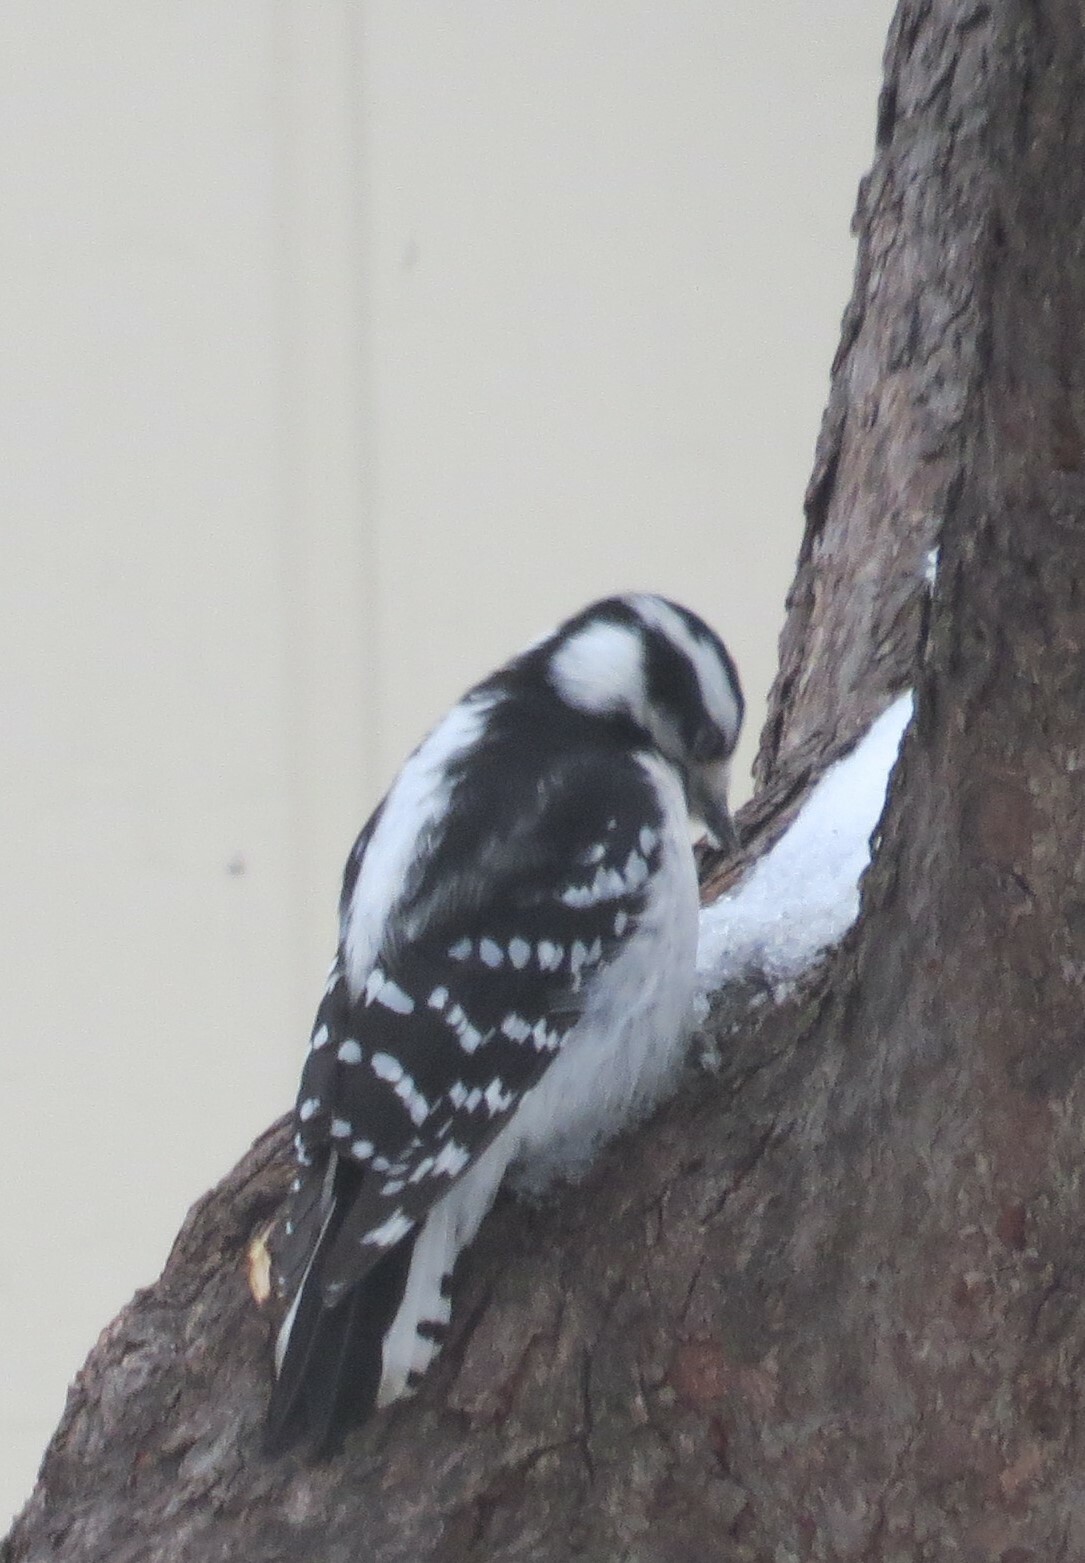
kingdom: Animalia
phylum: Chordata
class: Aves
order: Piciformes
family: Picidae
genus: Dryobates
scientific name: Dryobates pubescens
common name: Downy woodpecker
